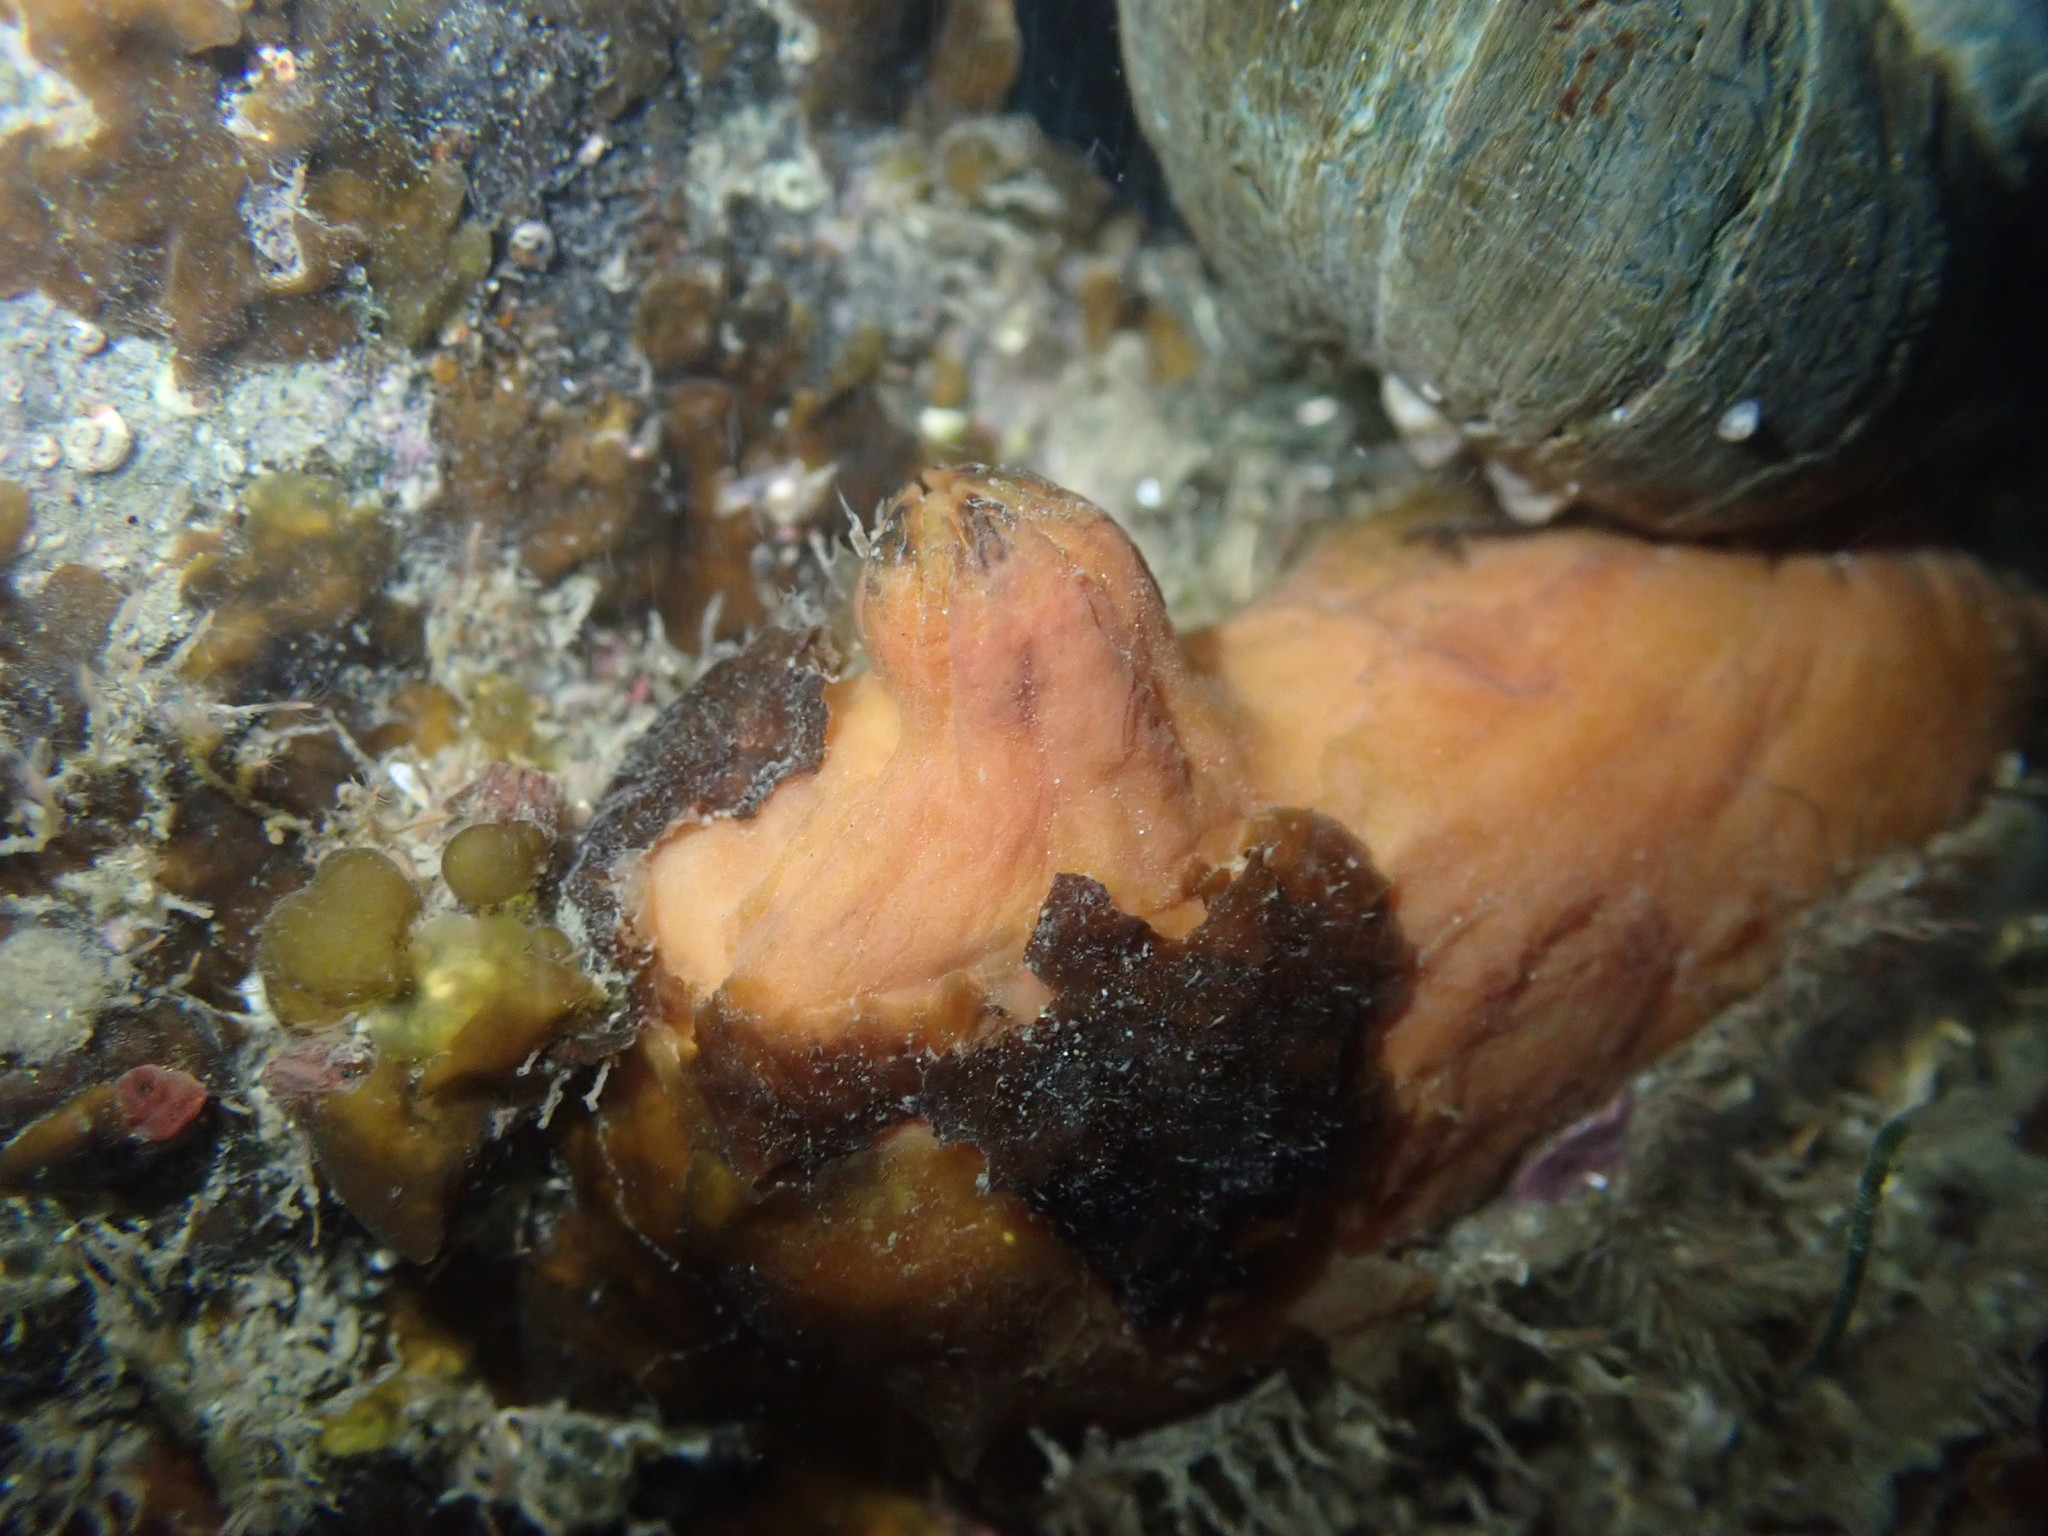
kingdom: Animalia
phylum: Chordata
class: Ascidiacea
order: Stolidobranchia
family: Styelidae
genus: Cnemidocarpa
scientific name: Cnemidocarpa bicornuta
